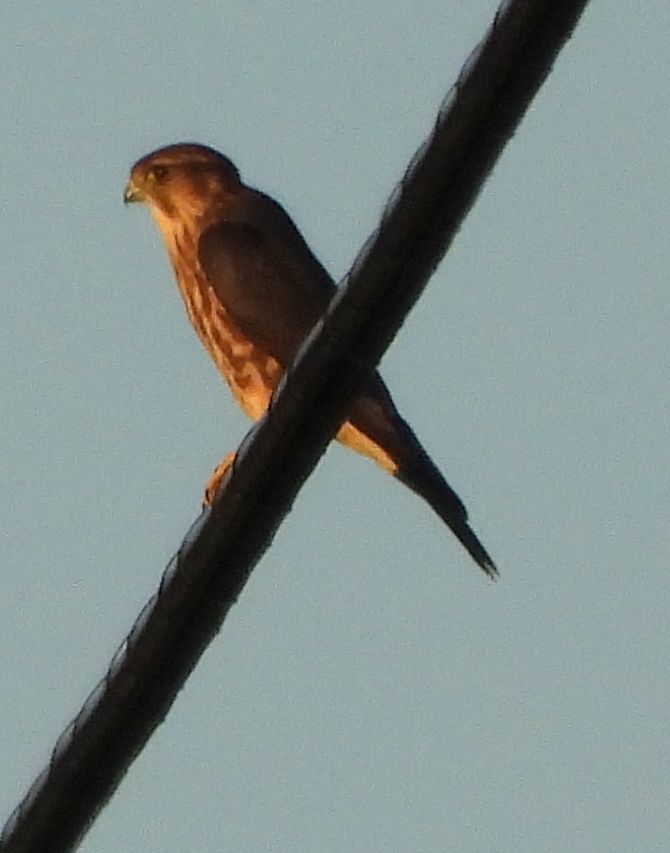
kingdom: Animalia
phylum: Chordata
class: Aves
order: Falconiformes
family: Falconidae
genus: Falco
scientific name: Falco columbarius
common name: Merlin
